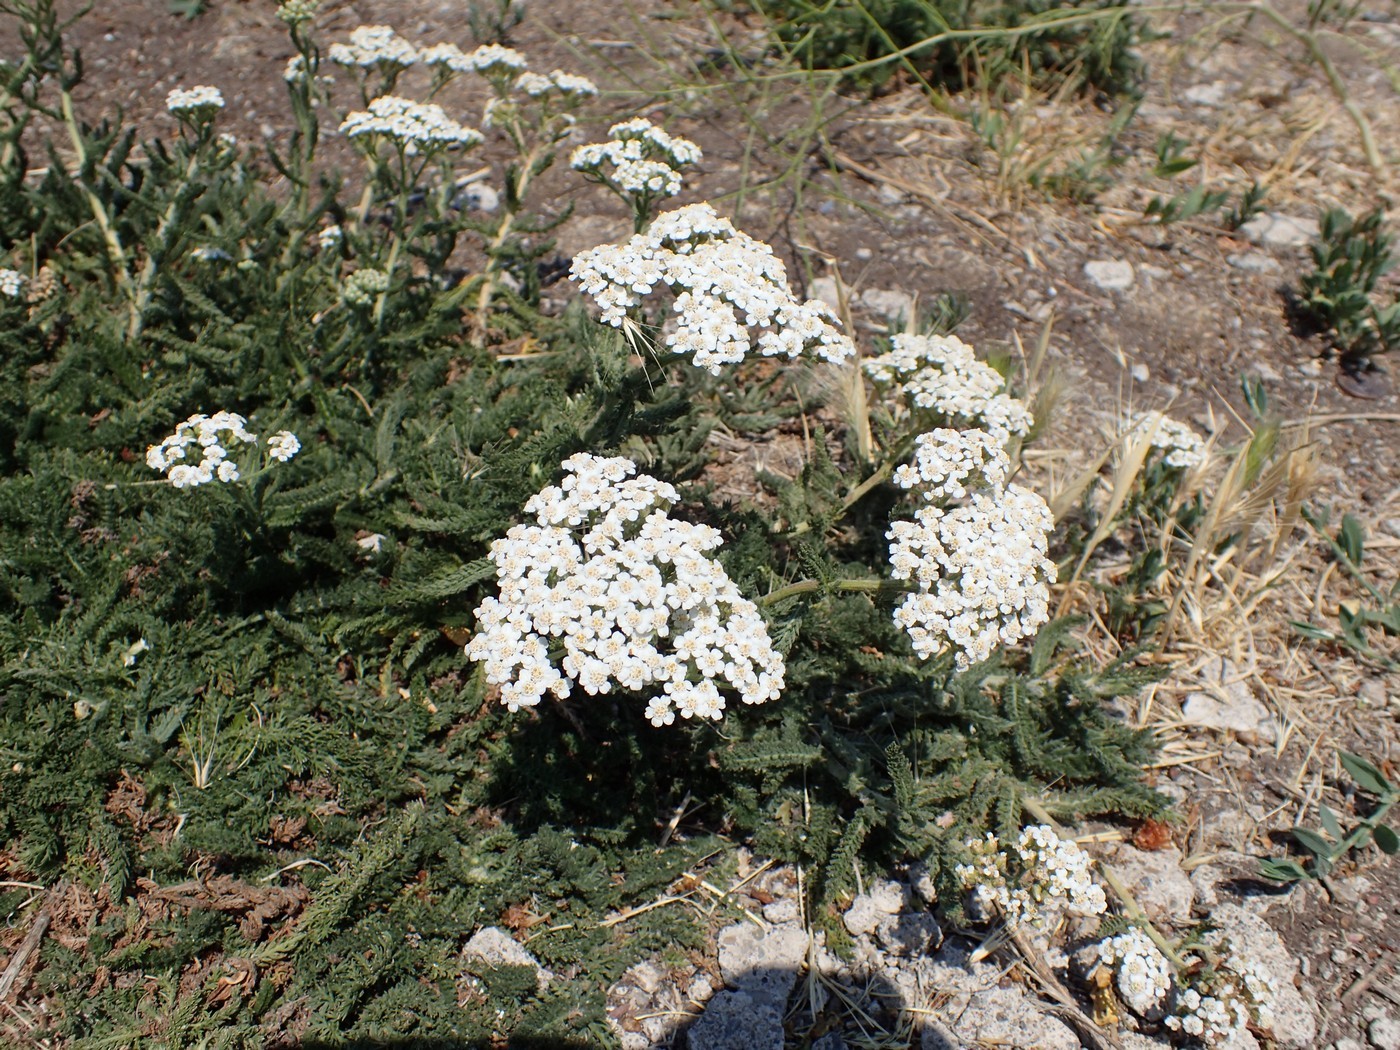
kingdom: Plantae
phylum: Tracheophyta
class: Magnoliopsida
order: Asterales
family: Asteraceae
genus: Achillea
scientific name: Achillea millefolium
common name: Yarrow
